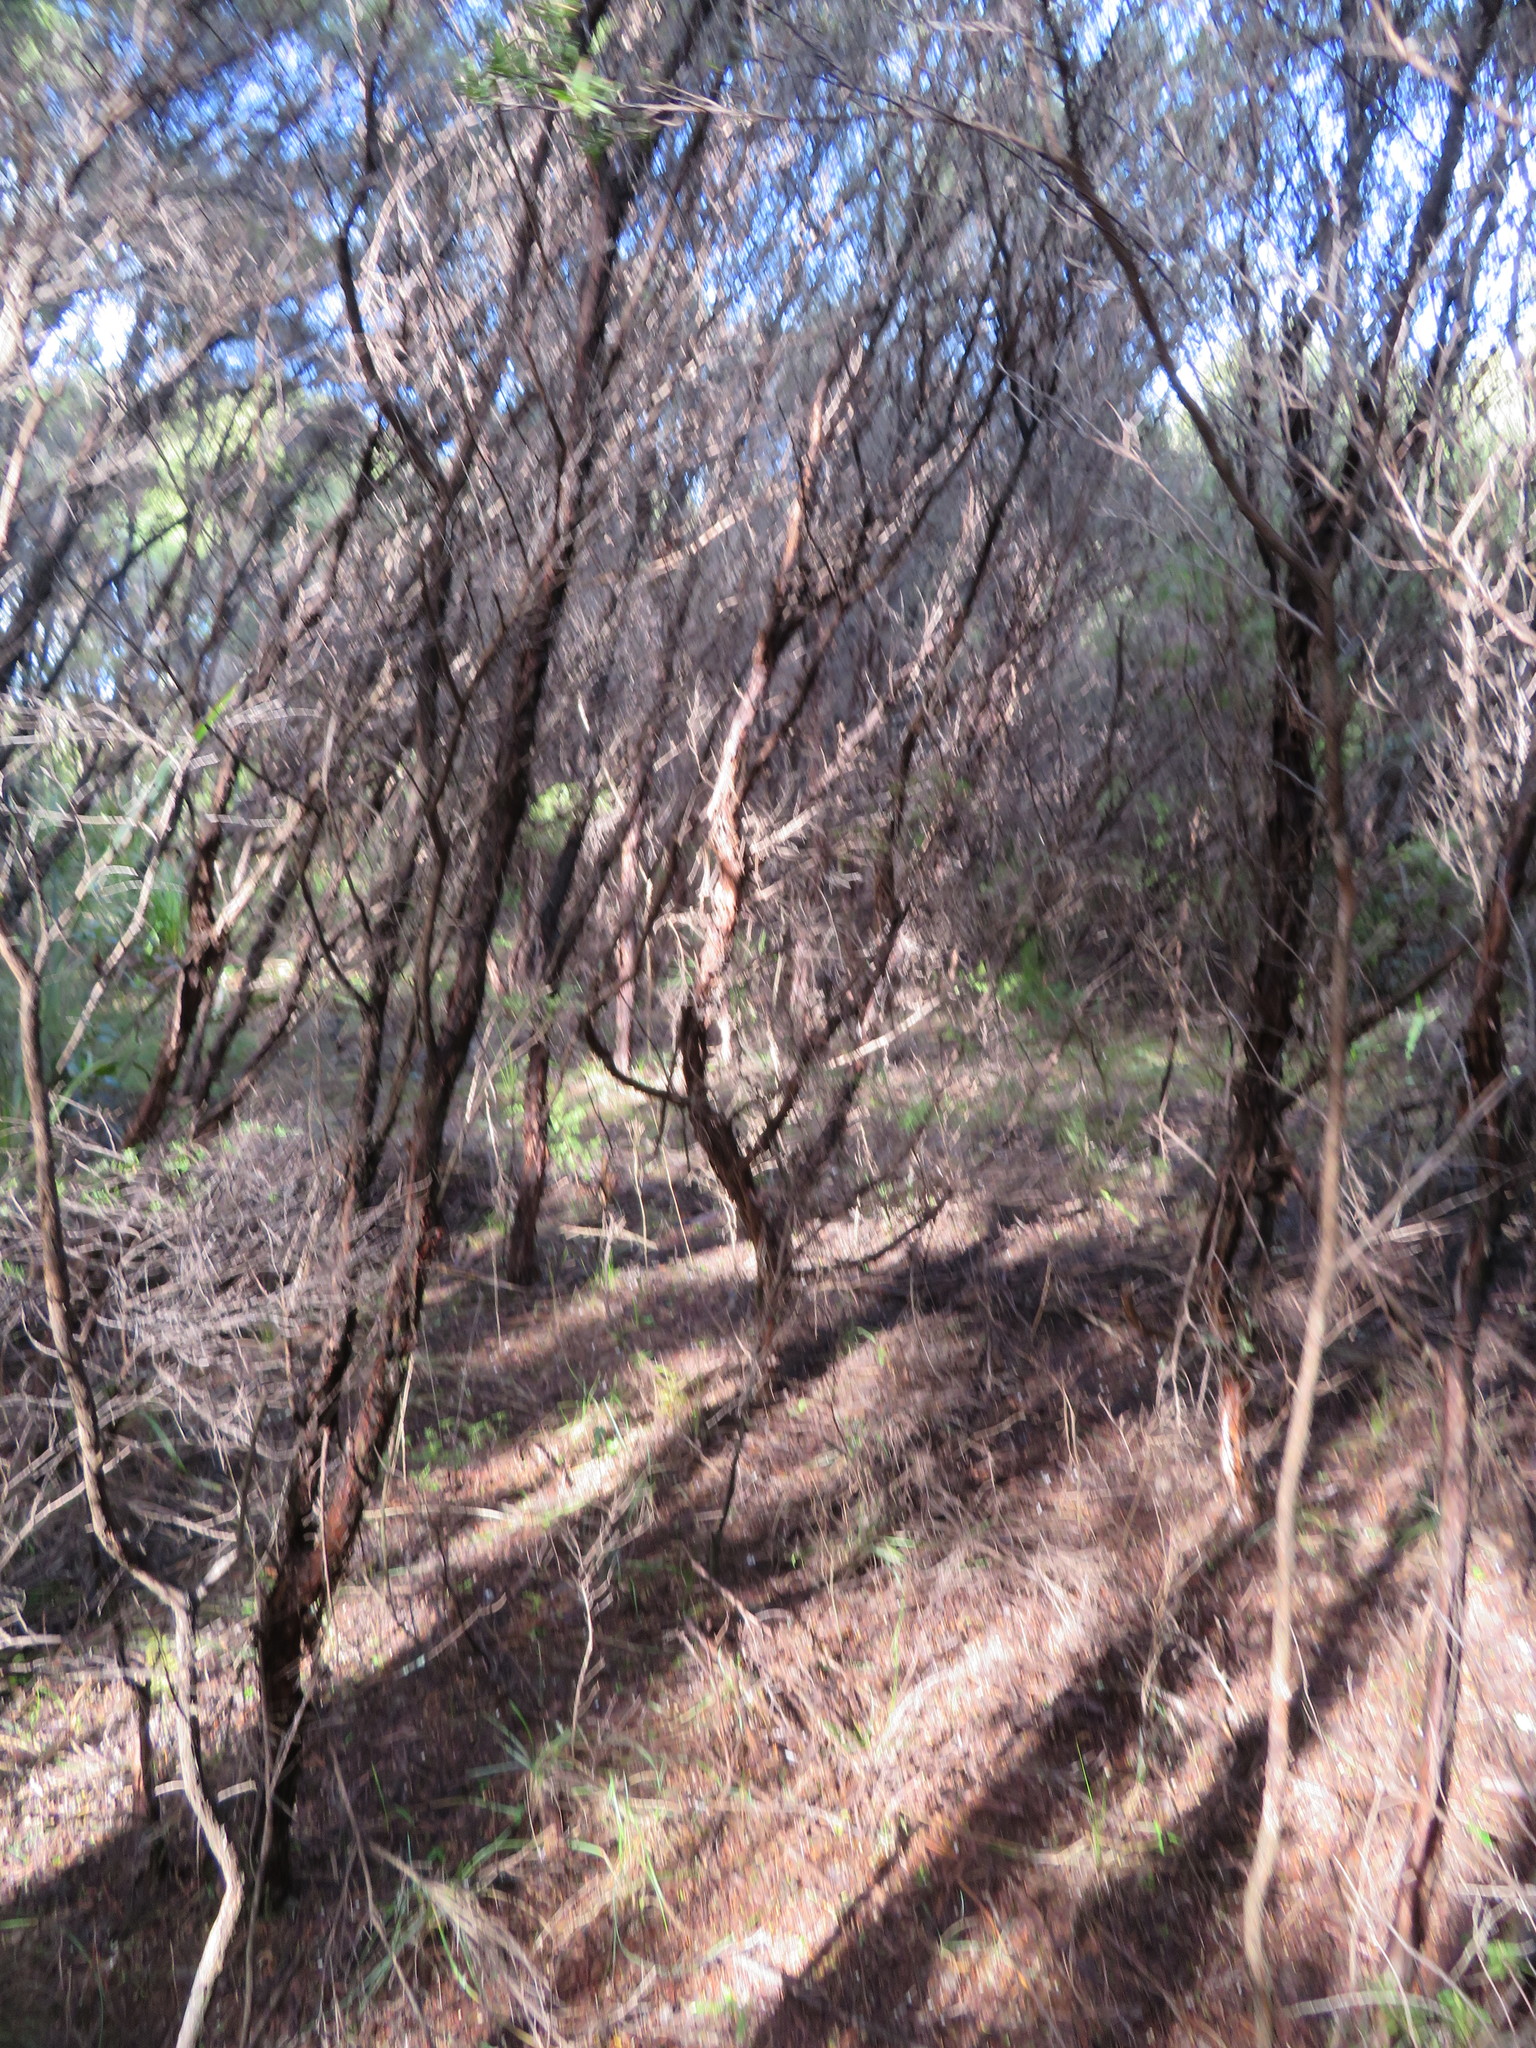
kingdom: Plantae
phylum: Tracheophyta
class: Magnoliopsida
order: Myrtales
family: Myrtaceae
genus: Leptospermum
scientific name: Leptospermum scoparium
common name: Broom tea-tree
